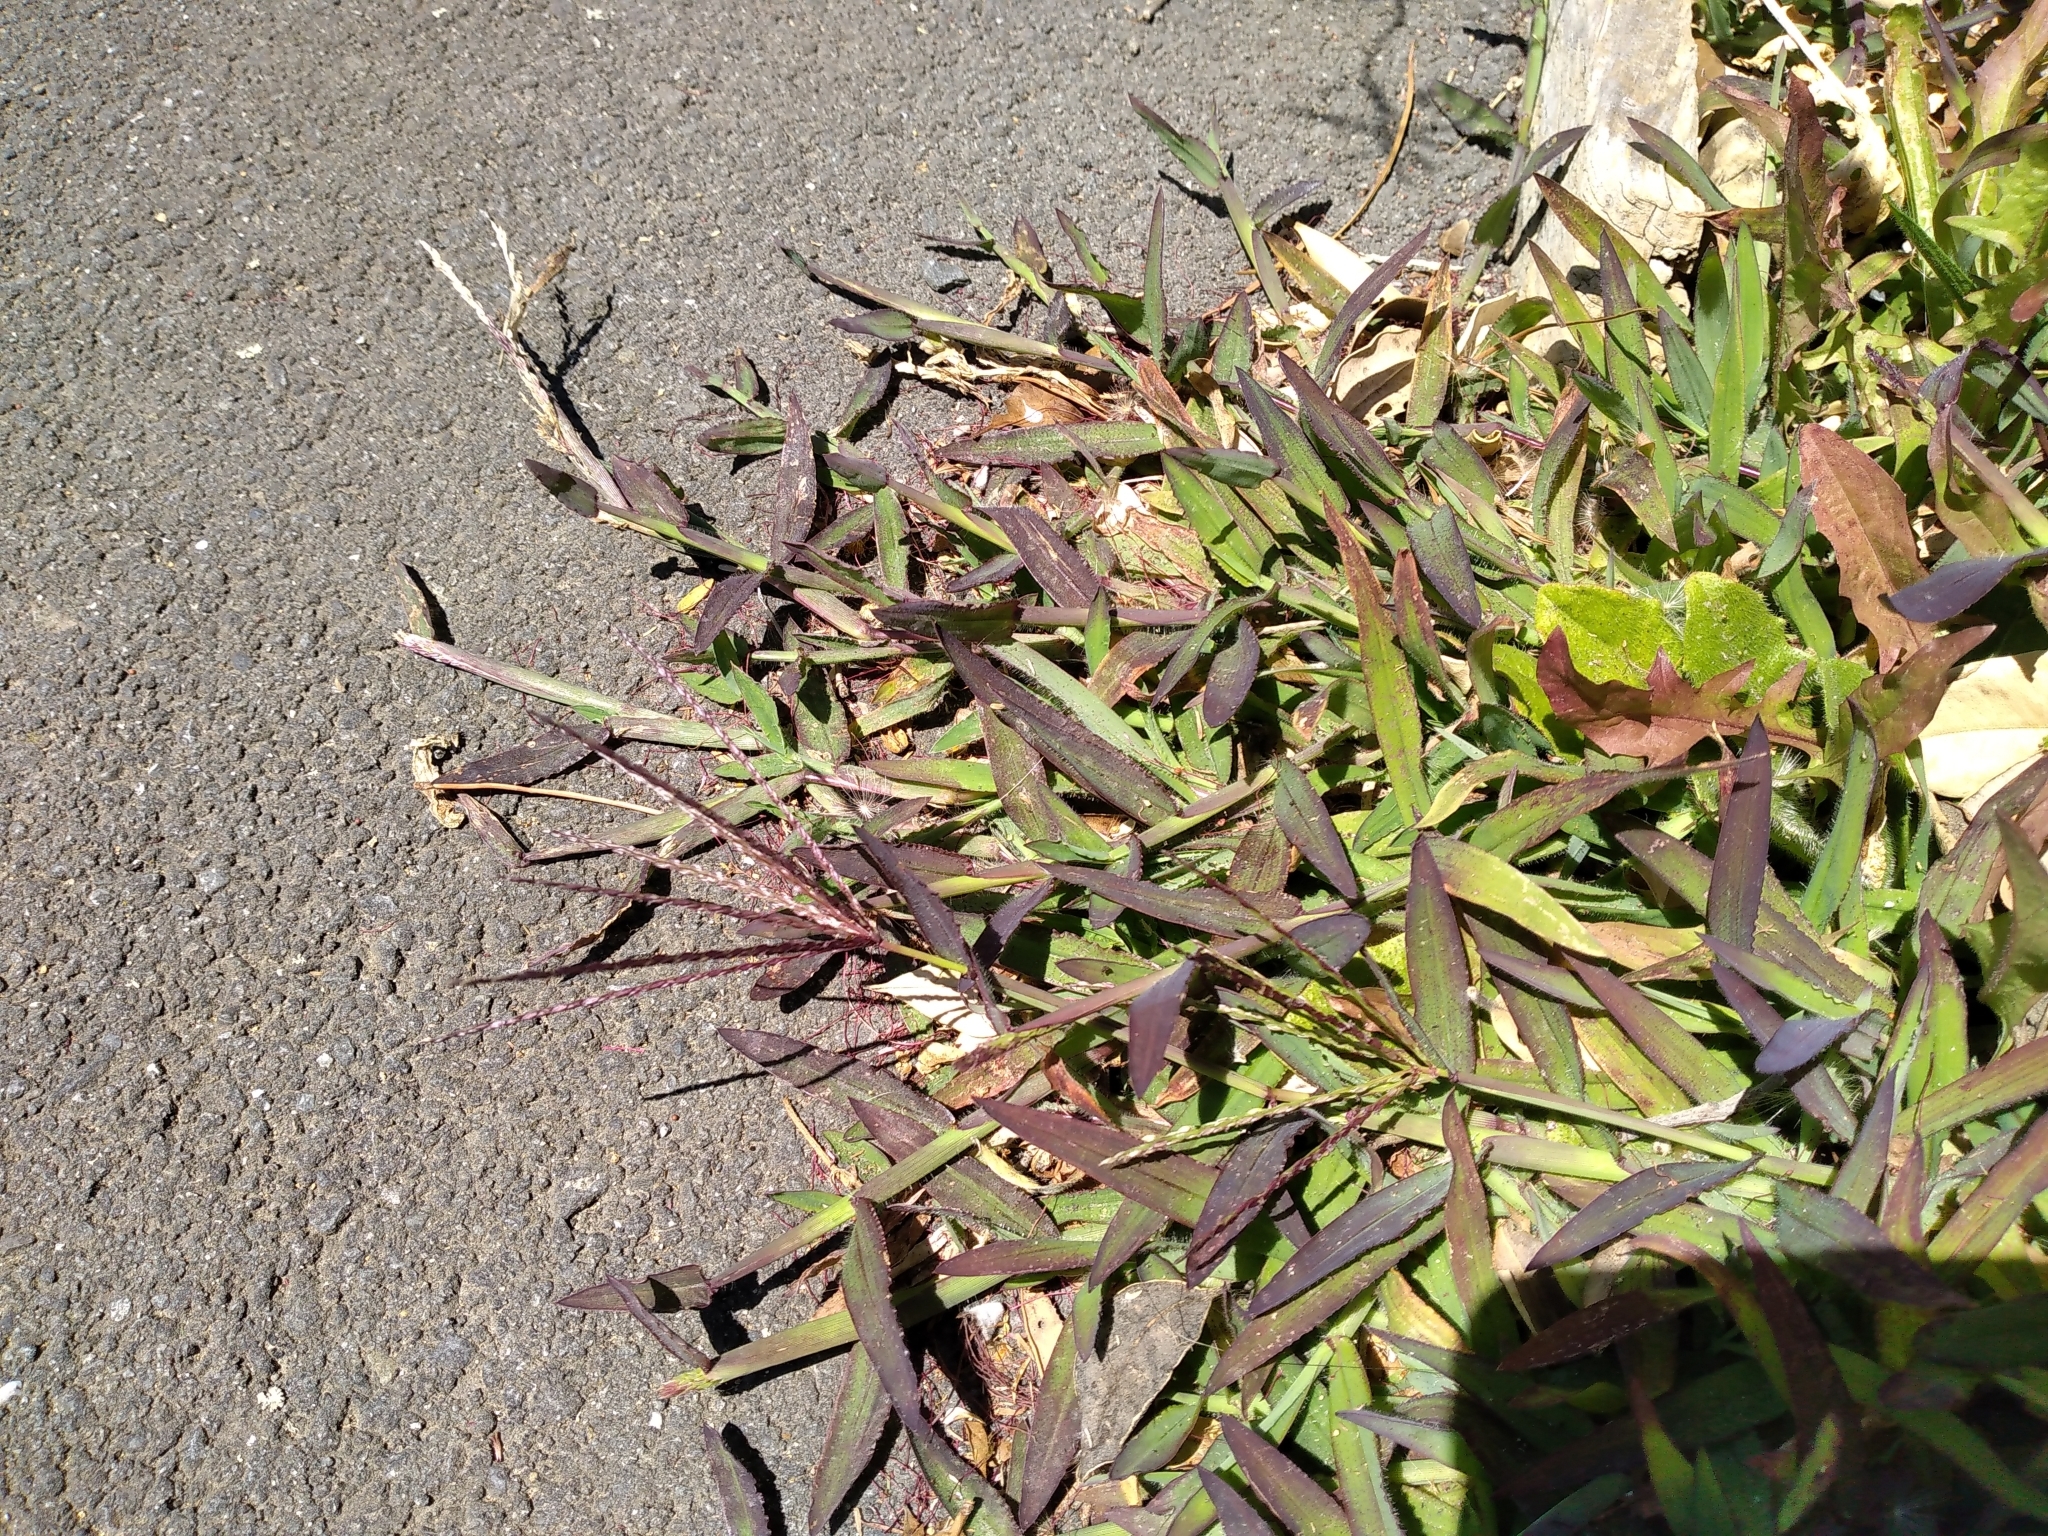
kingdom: Plantae
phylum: Tracheophyta
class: Liliopsida
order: Poales
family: Poaceae
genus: Digitaria
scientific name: Digitaria sanguinalis
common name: Hairy crabgrass
